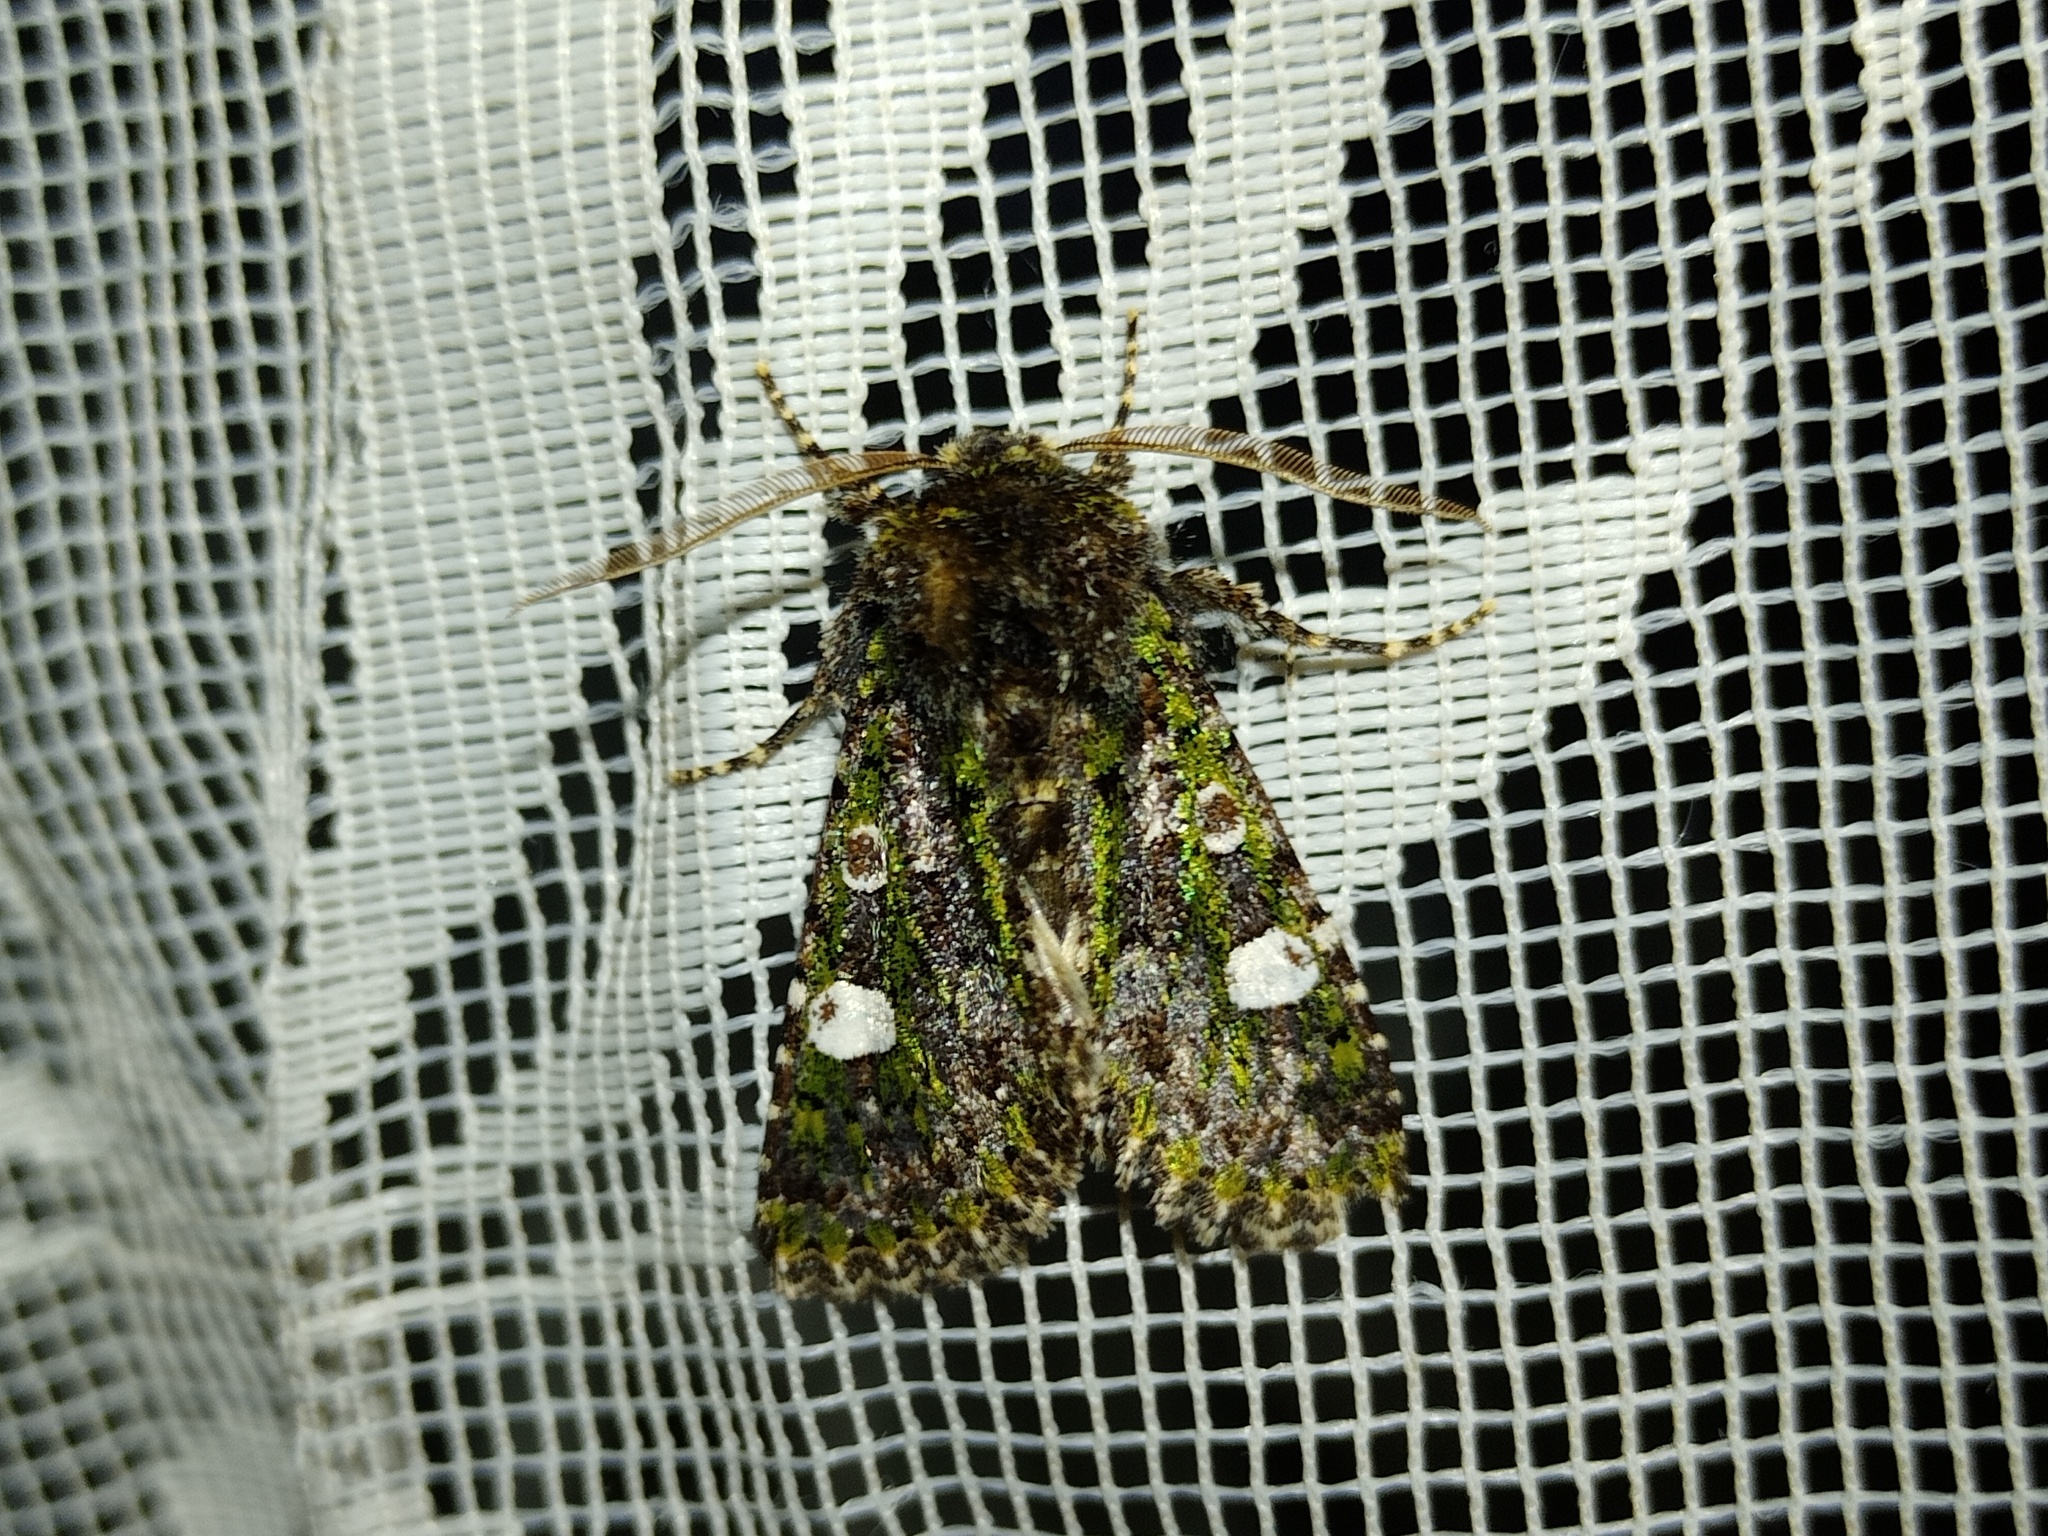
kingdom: Animalia
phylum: Arthropoda
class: Insecta
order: Lepidoptera
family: Noctuidae
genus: Valeria
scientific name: Valeria oleagina
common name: Green-brindled dot
